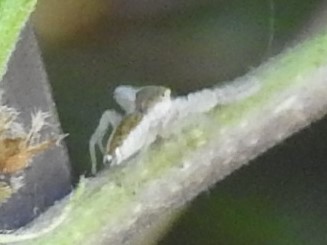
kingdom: Animalia
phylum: Arthropoda
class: Arachnida
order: Araneae
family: Salticidae
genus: Hentzia
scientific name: Hentzia mitrata
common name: White-jawed jumping spider
